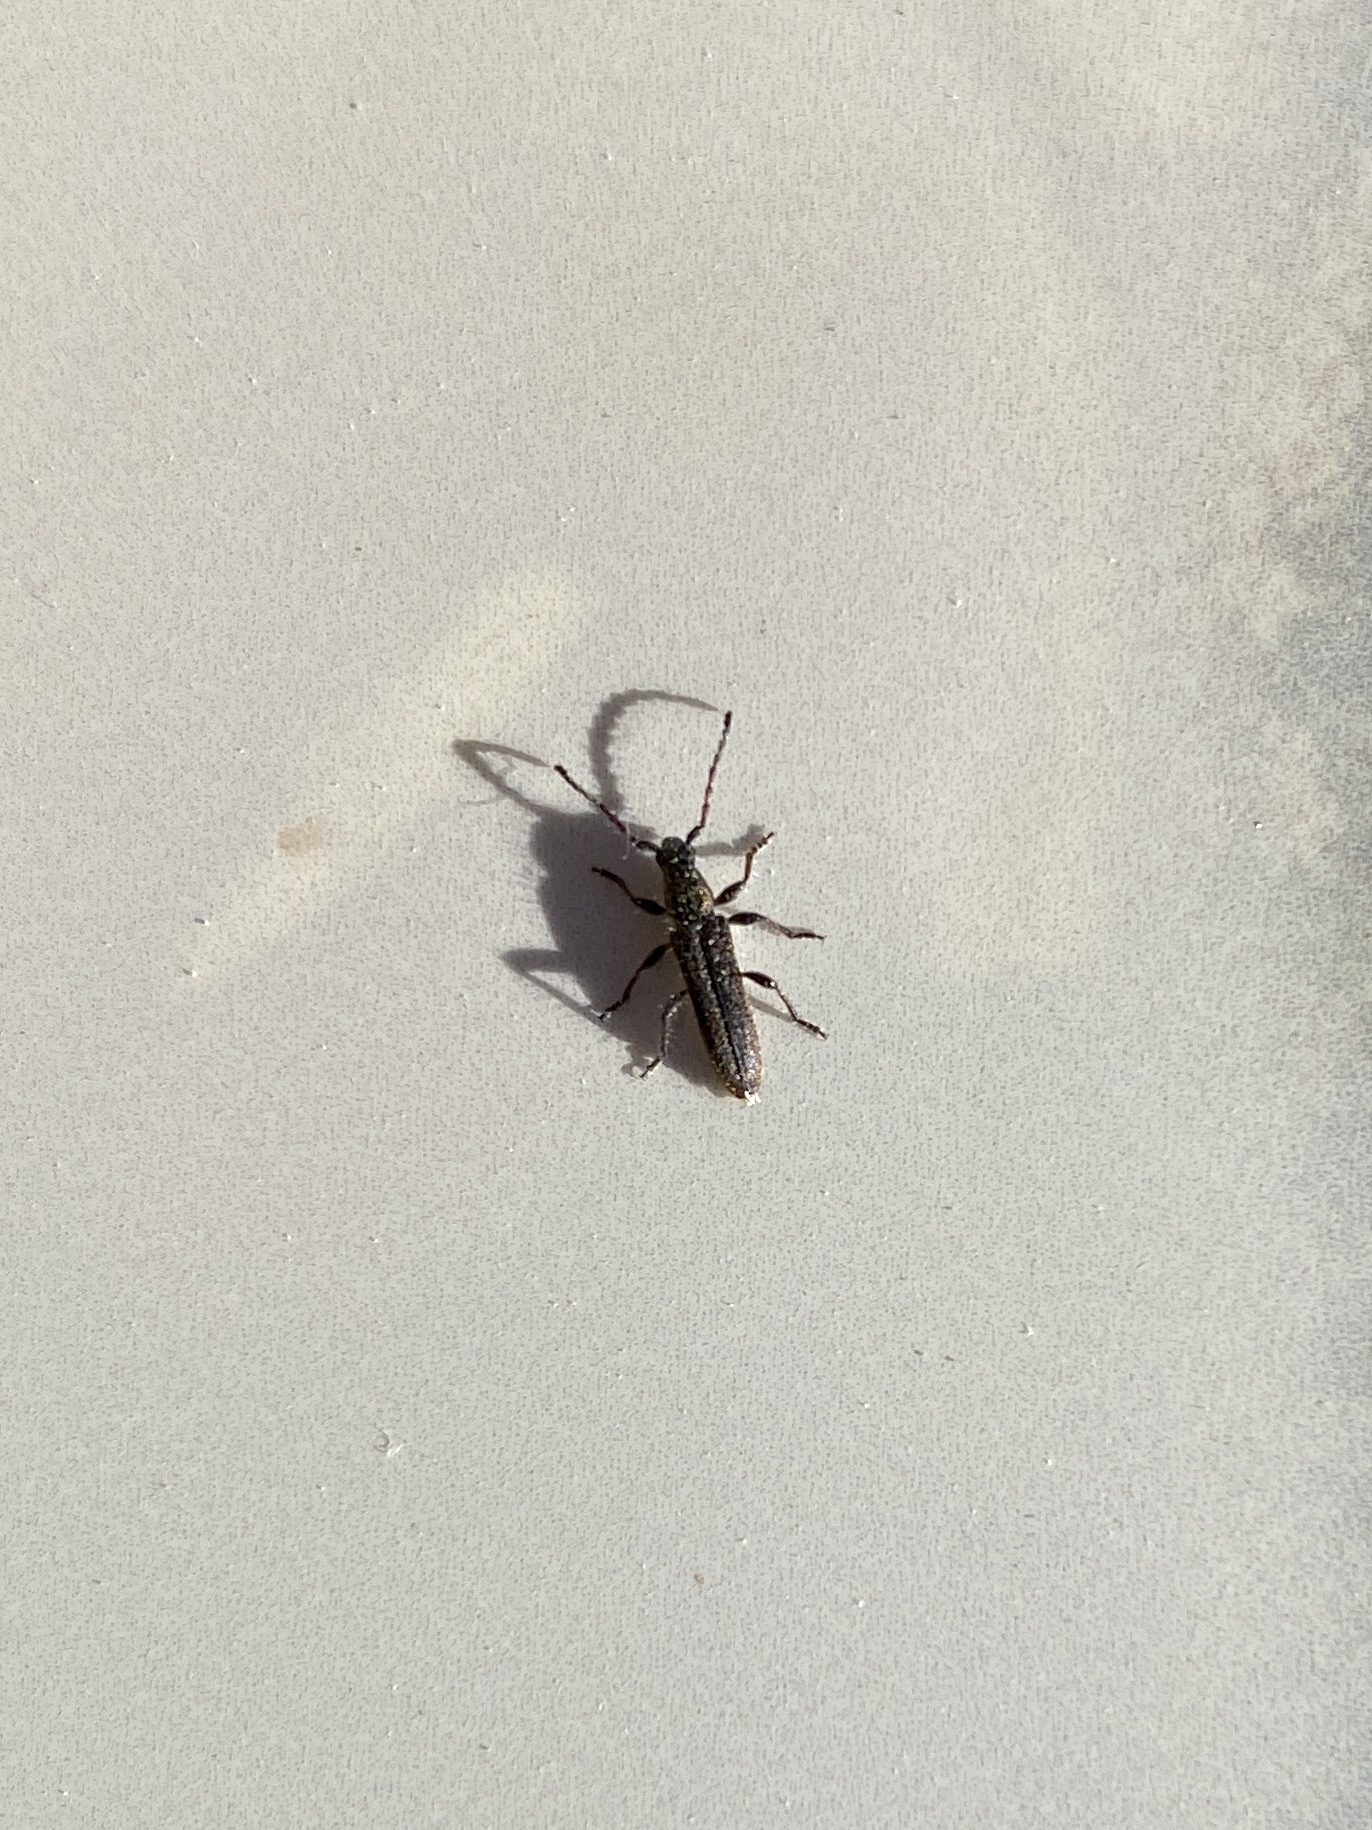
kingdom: Animalia
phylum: Arthropoda
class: Insecta
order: Coleoptera
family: Cerambycidae
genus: Deilus
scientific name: Deilus fugax
